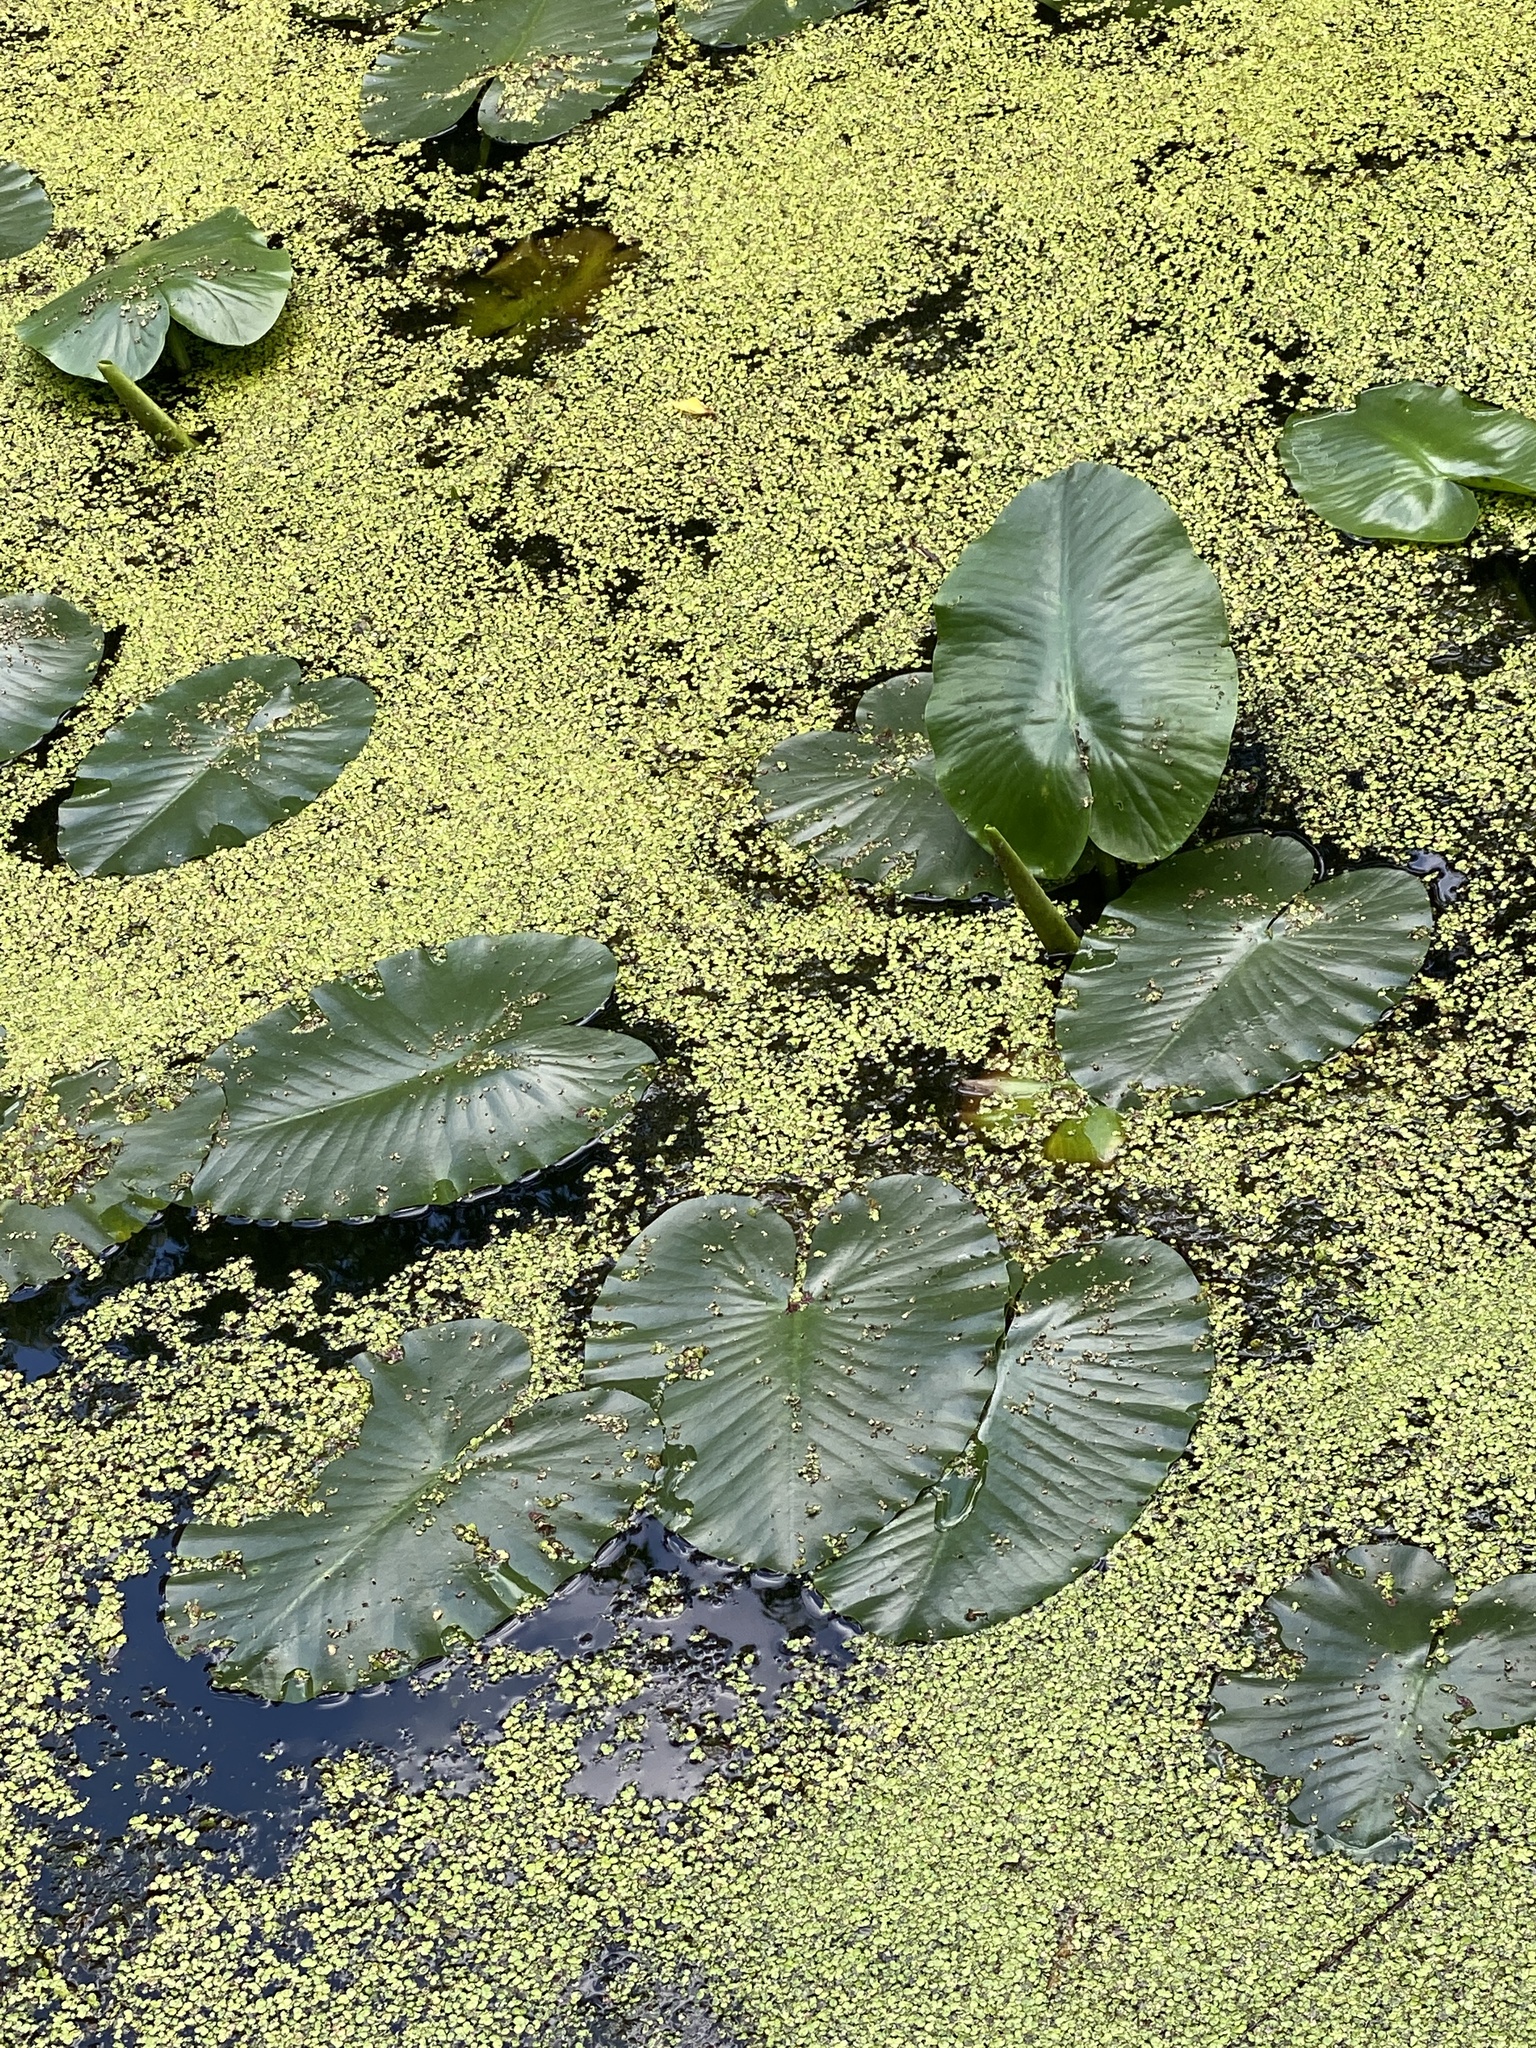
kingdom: Plantae
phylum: Tracheophyta
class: Magnoliopsida
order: Nymphaeales
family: Nymphaeaceae
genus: Nuphar
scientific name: Nuphar variegata
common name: Beaver-root
